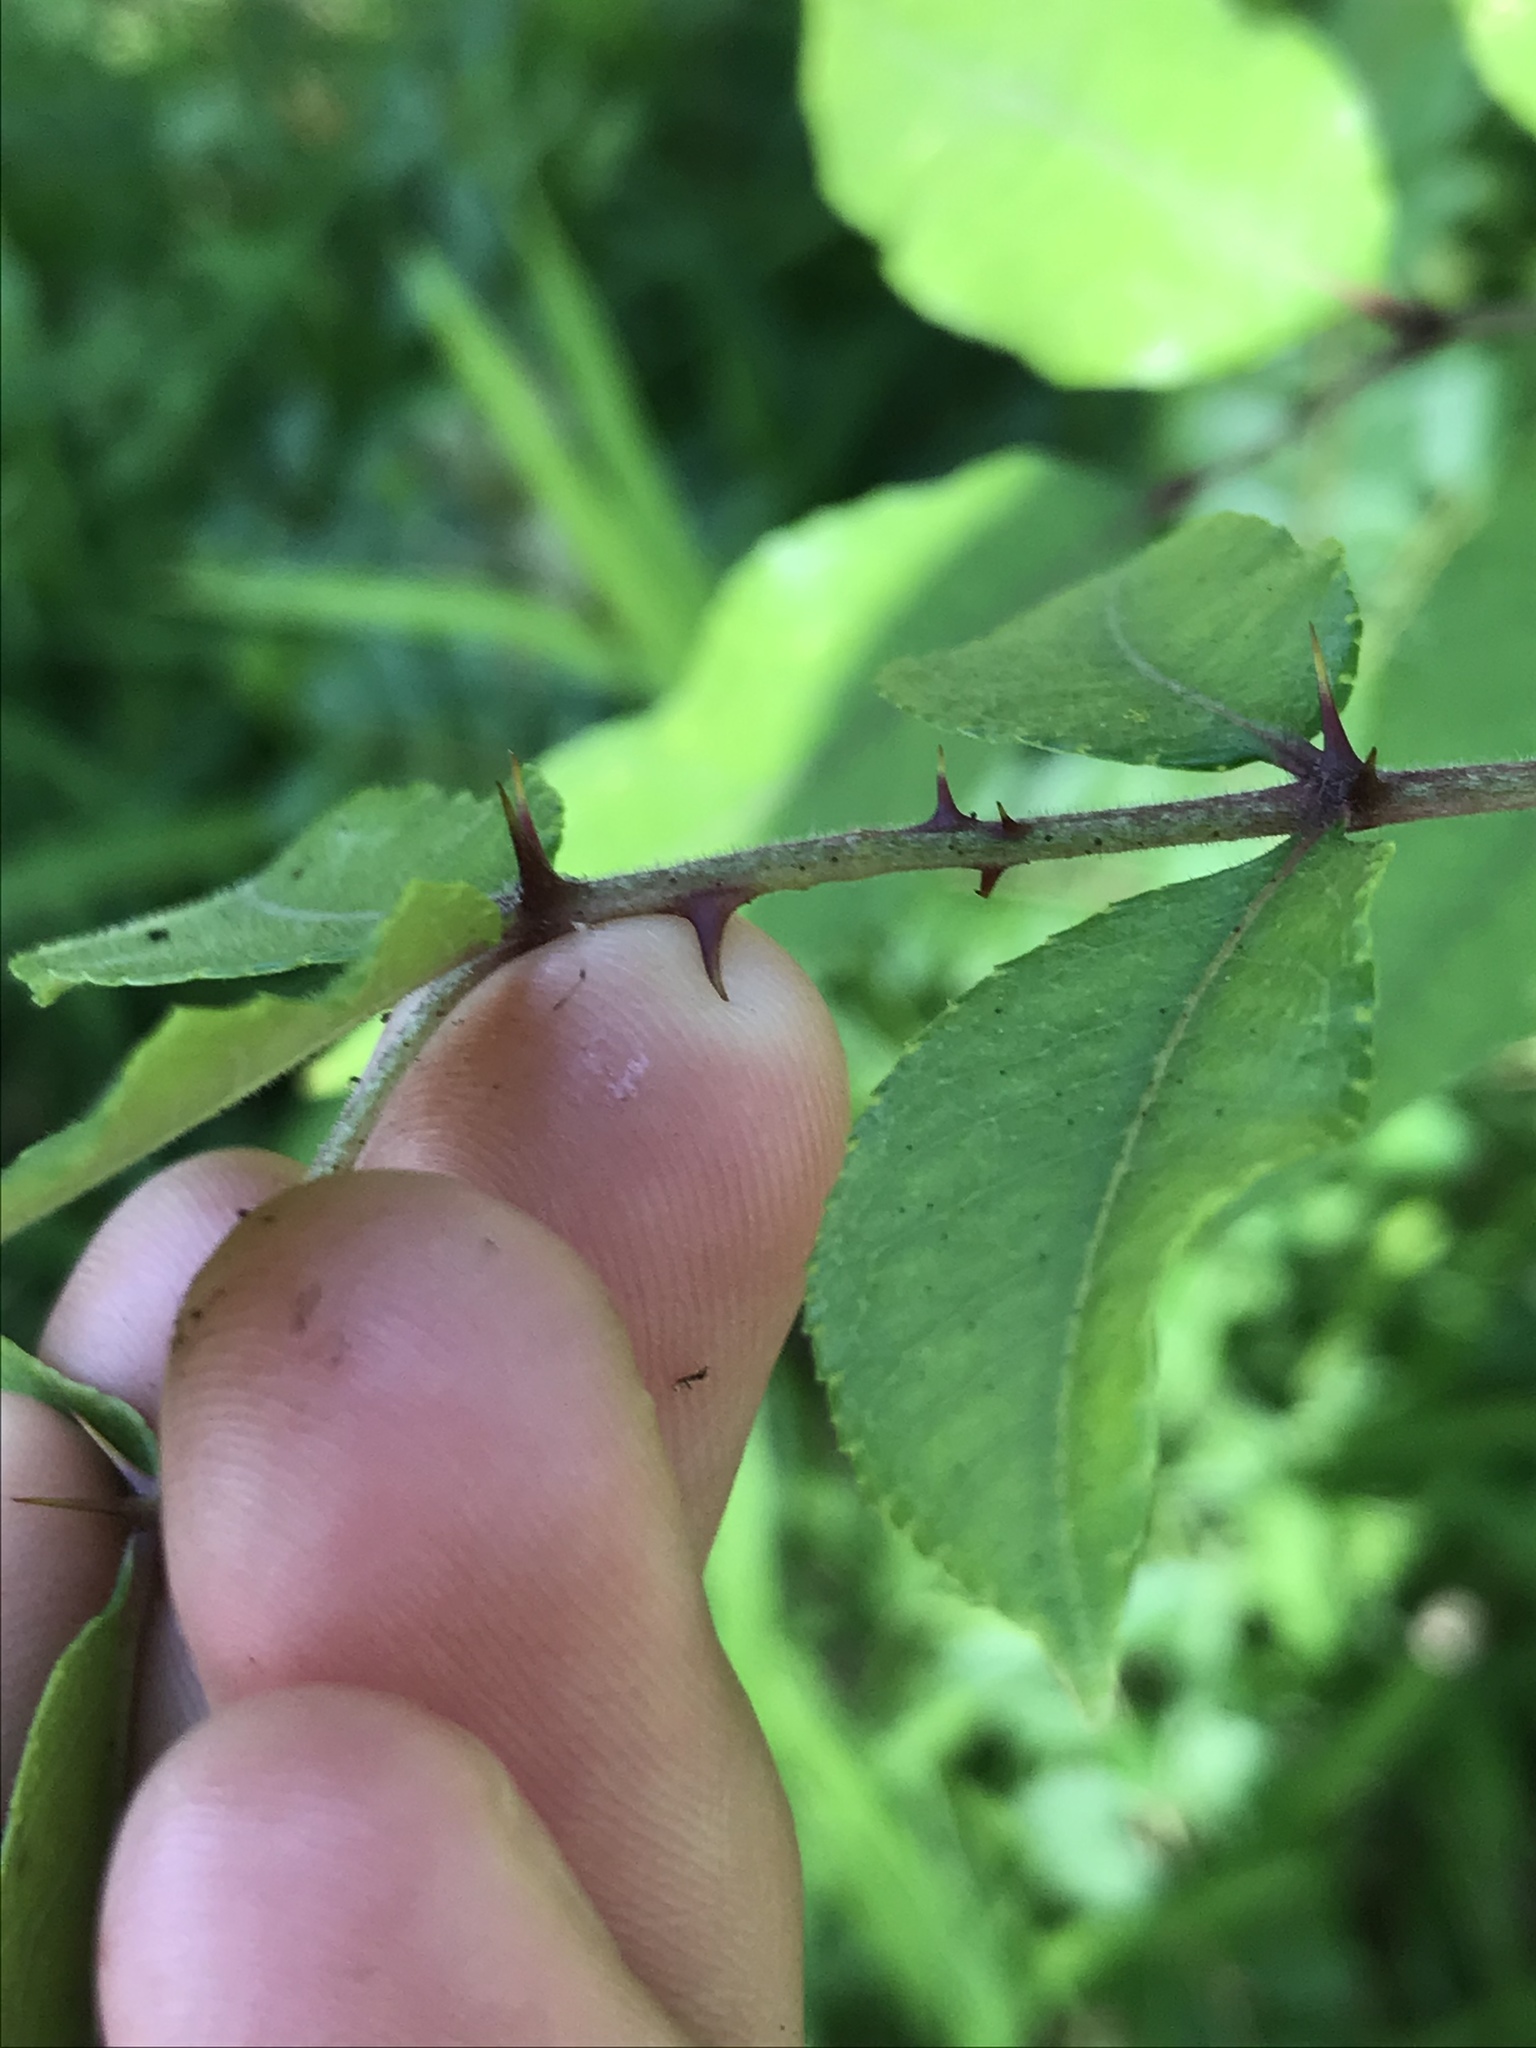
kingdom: Plantae
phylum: Tracheophyta
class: Magnoliopsida
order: Sapindales
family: Rutaceae
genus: Zanthoxylum
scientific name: Zanthoxylum clava-herculis
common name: Hercules'-club
